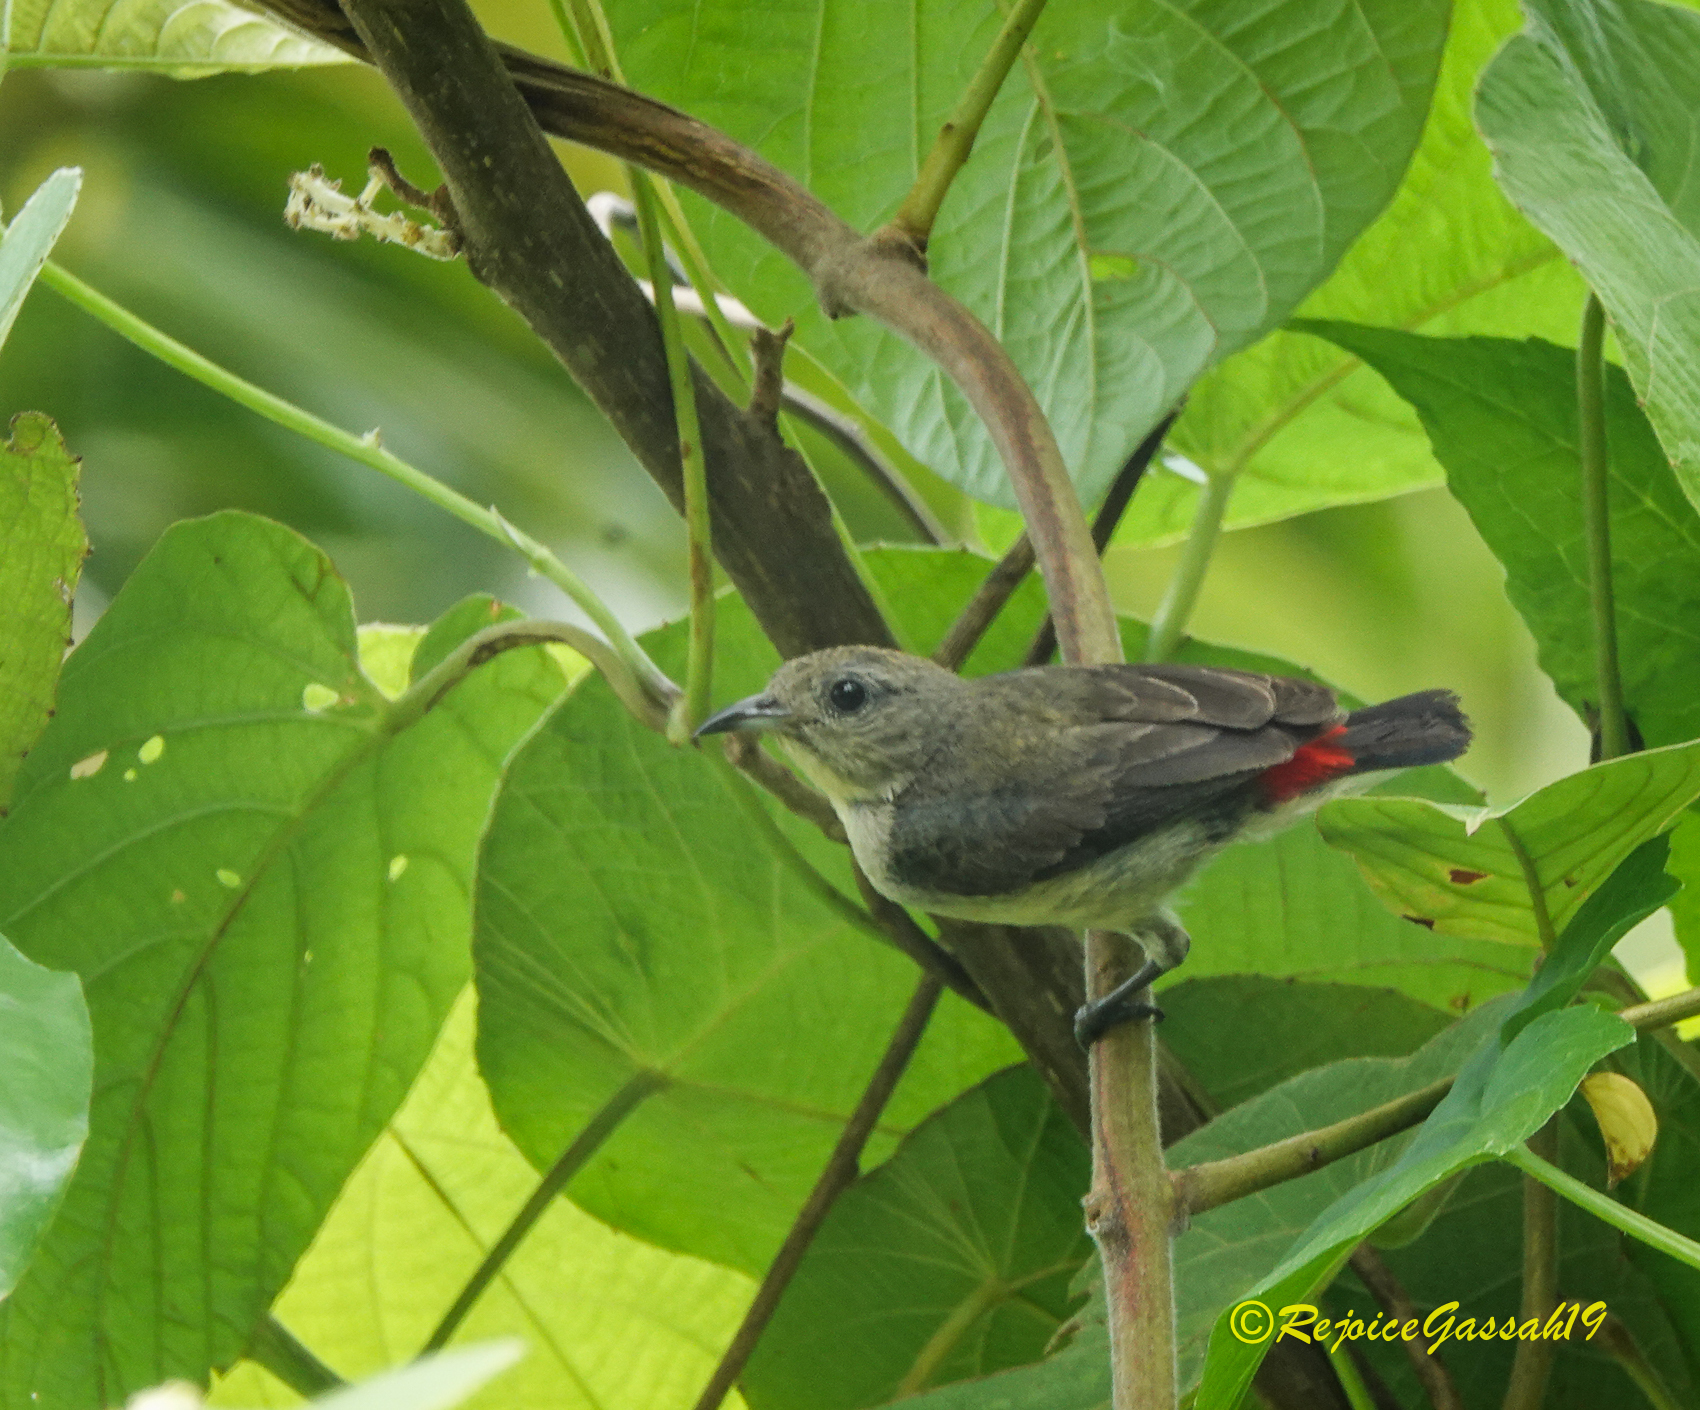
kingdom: Animalia
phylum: Chordata
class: Aves
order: Passeriformes
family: Dicaeidae
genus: Dicaeum
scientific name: Dicaeum cruentatum
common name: Scarlet-backed flowerpecker
